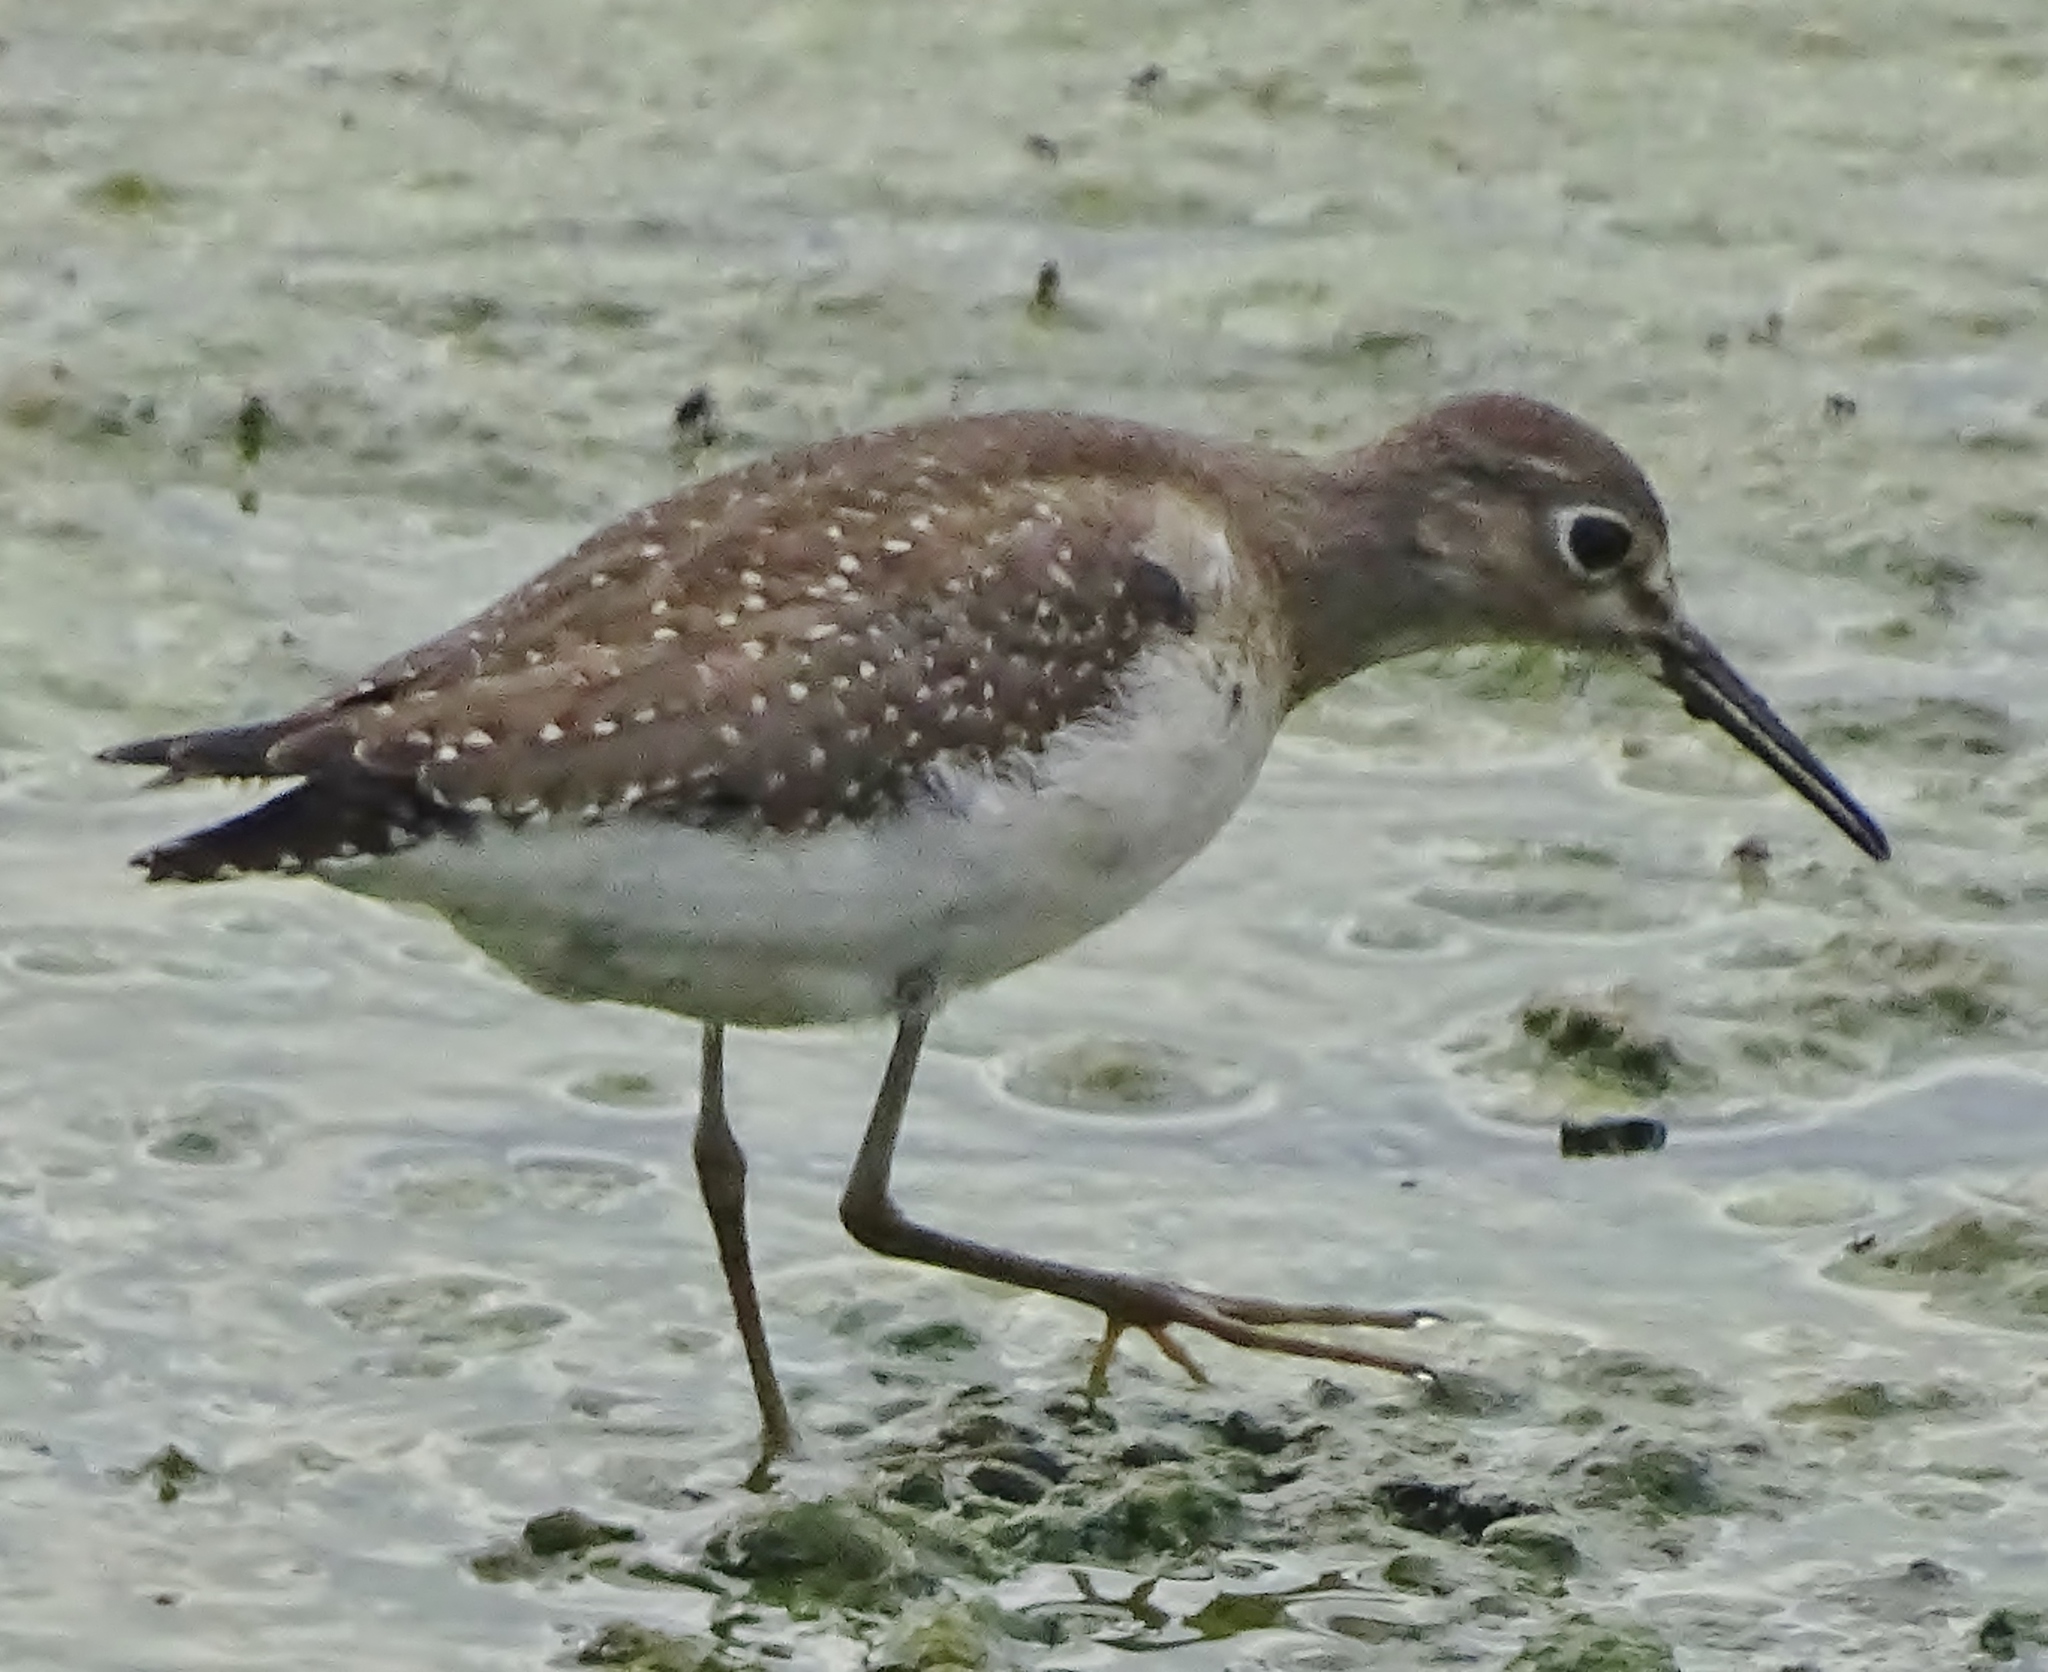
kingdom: Animalia
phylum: Chordata
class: Aves
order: Charadriiformes
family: Scolopacidae
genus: Tringa
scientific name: Tringa solitaria
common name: Solitary sandpiper
